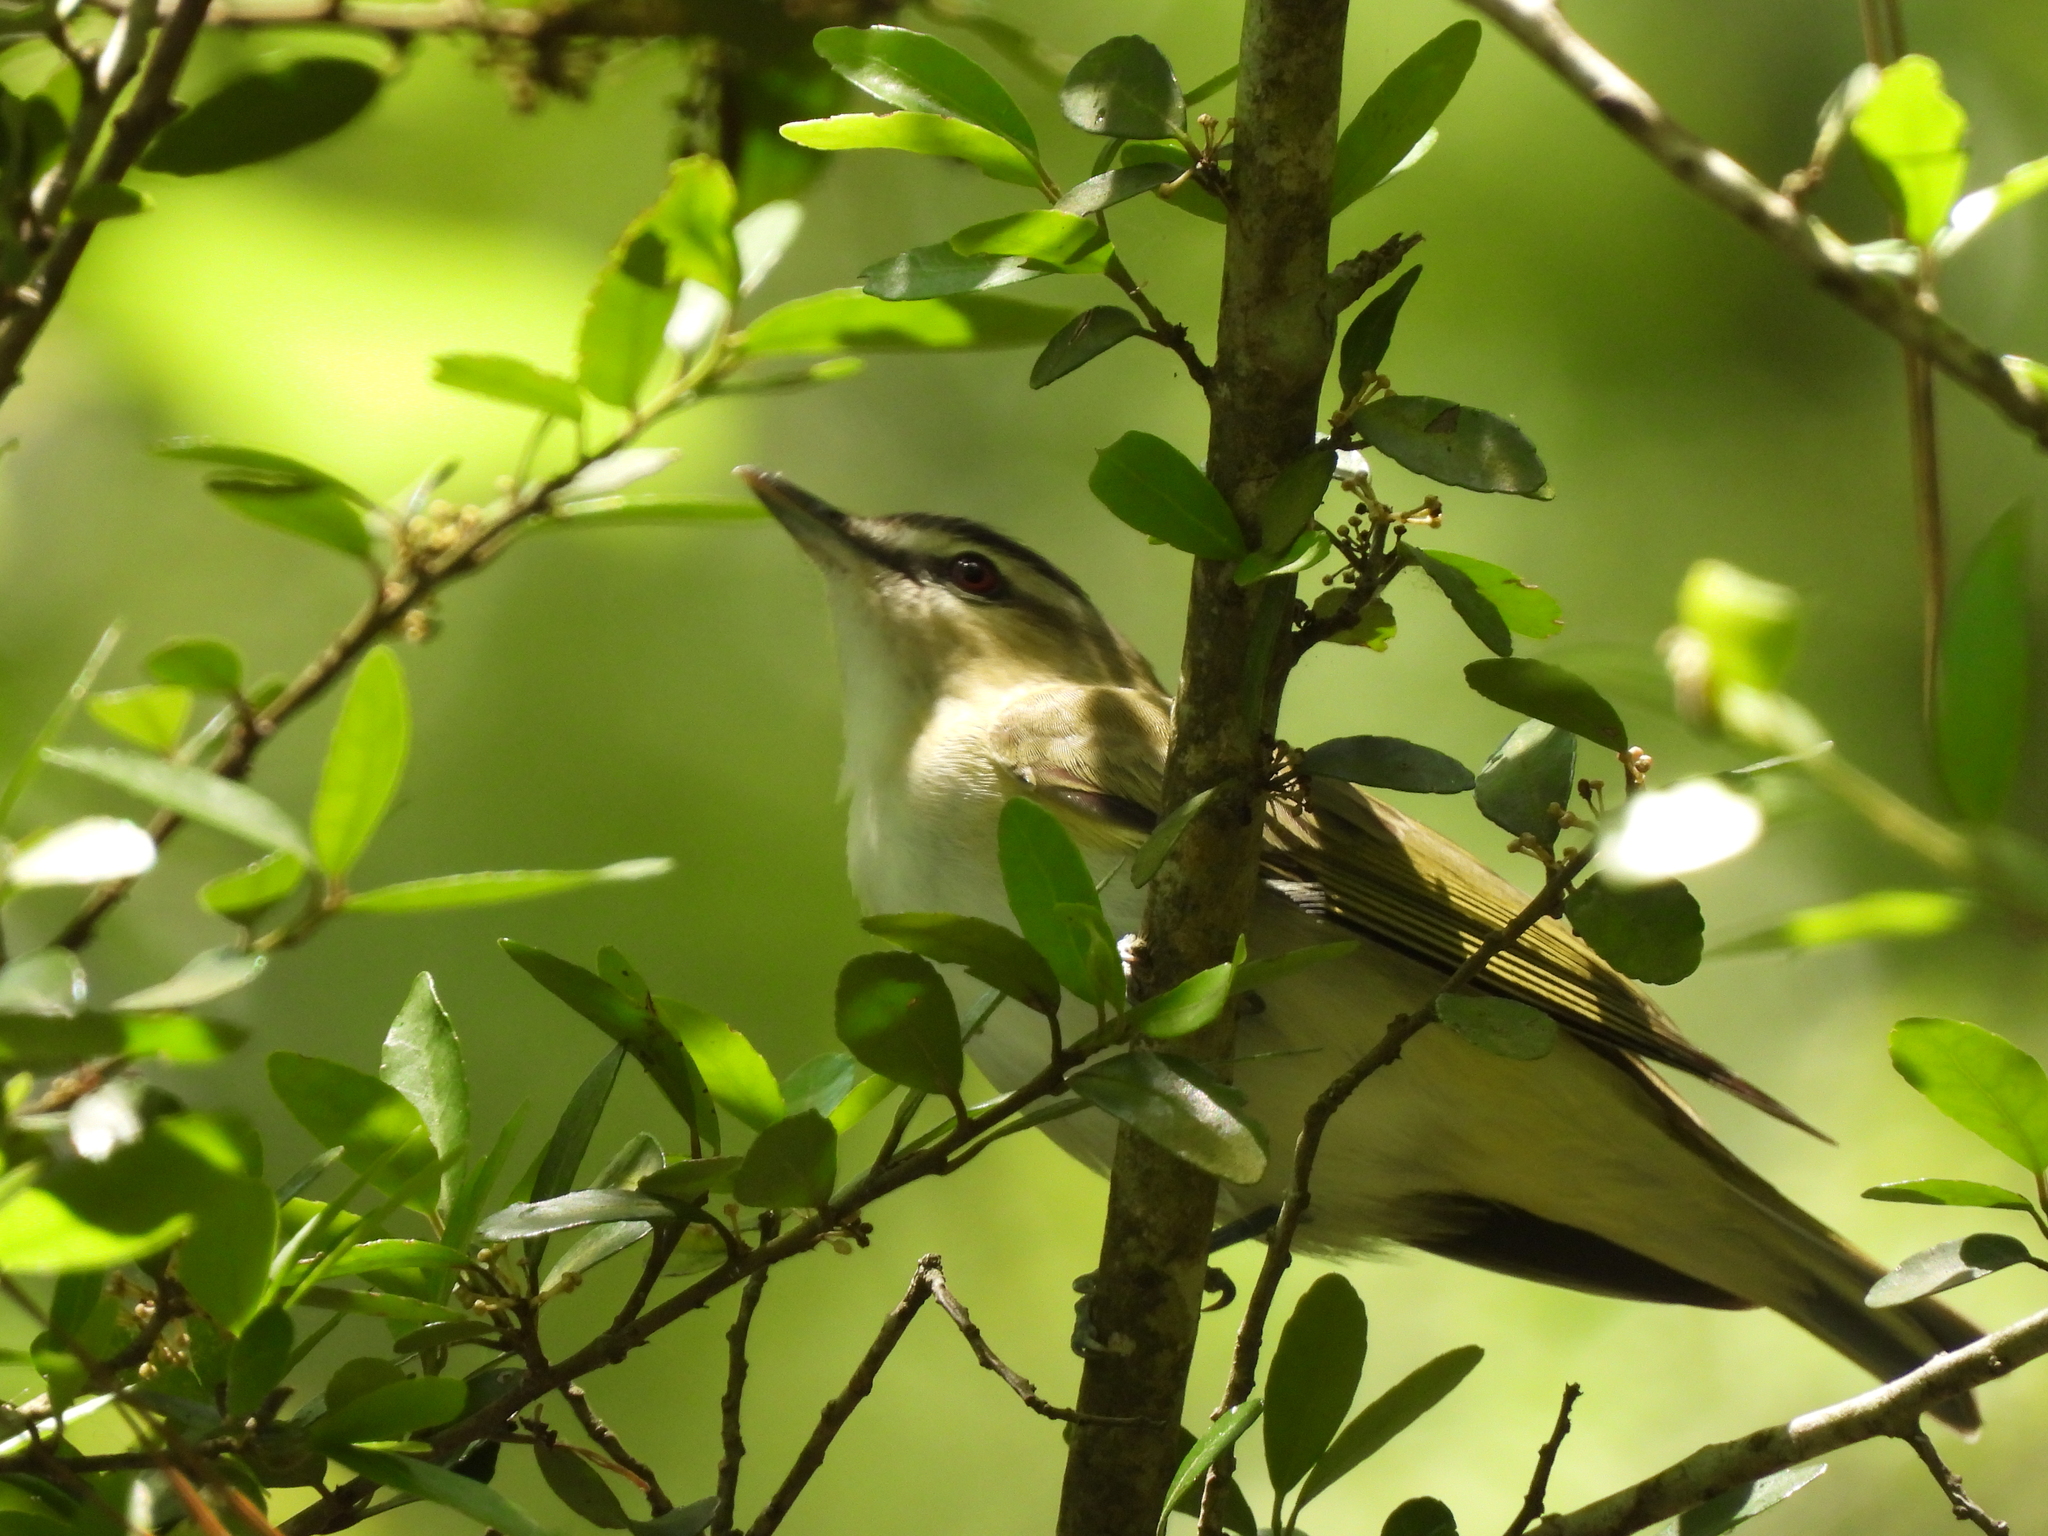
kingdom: Animalia
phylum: Chordata
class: Aves
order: Passeriformes
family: Vireonidae
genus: Vireo
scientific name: Vireo olivaceus
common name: Red-eyed vireo
